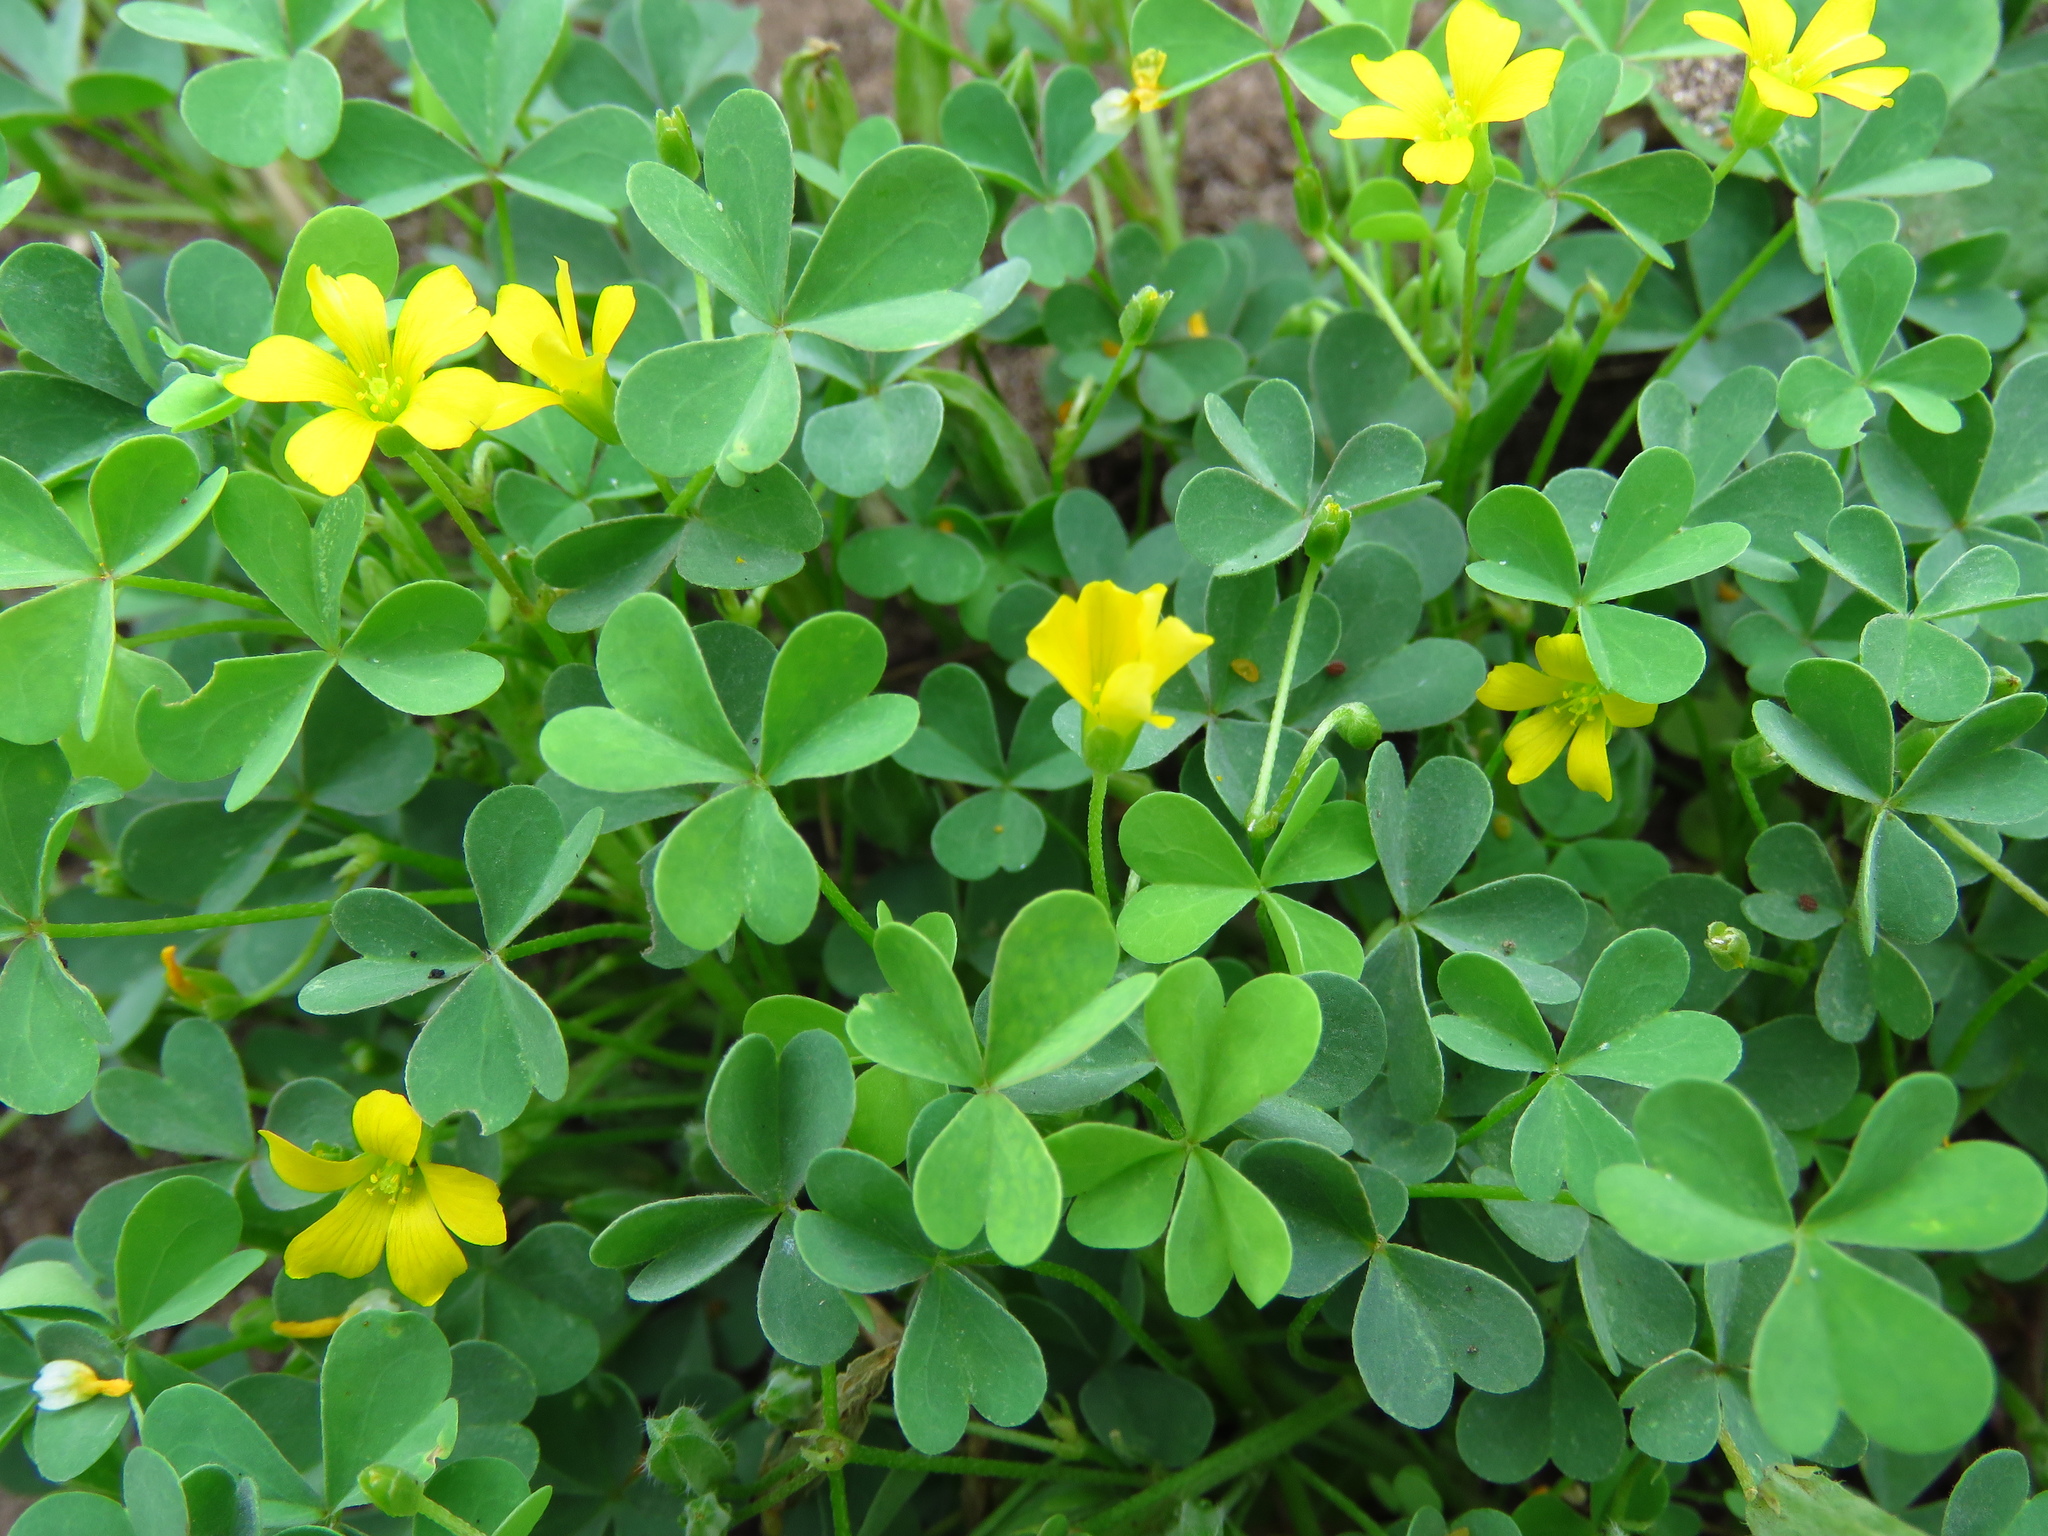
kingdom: Plantae
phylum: Tracheophyta
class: Magnoliopsida
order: Oxalidales
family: Oxalidaceae
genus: Oxalis
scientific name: Oxalis dillenii
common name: Sussex yellow-sorrel
